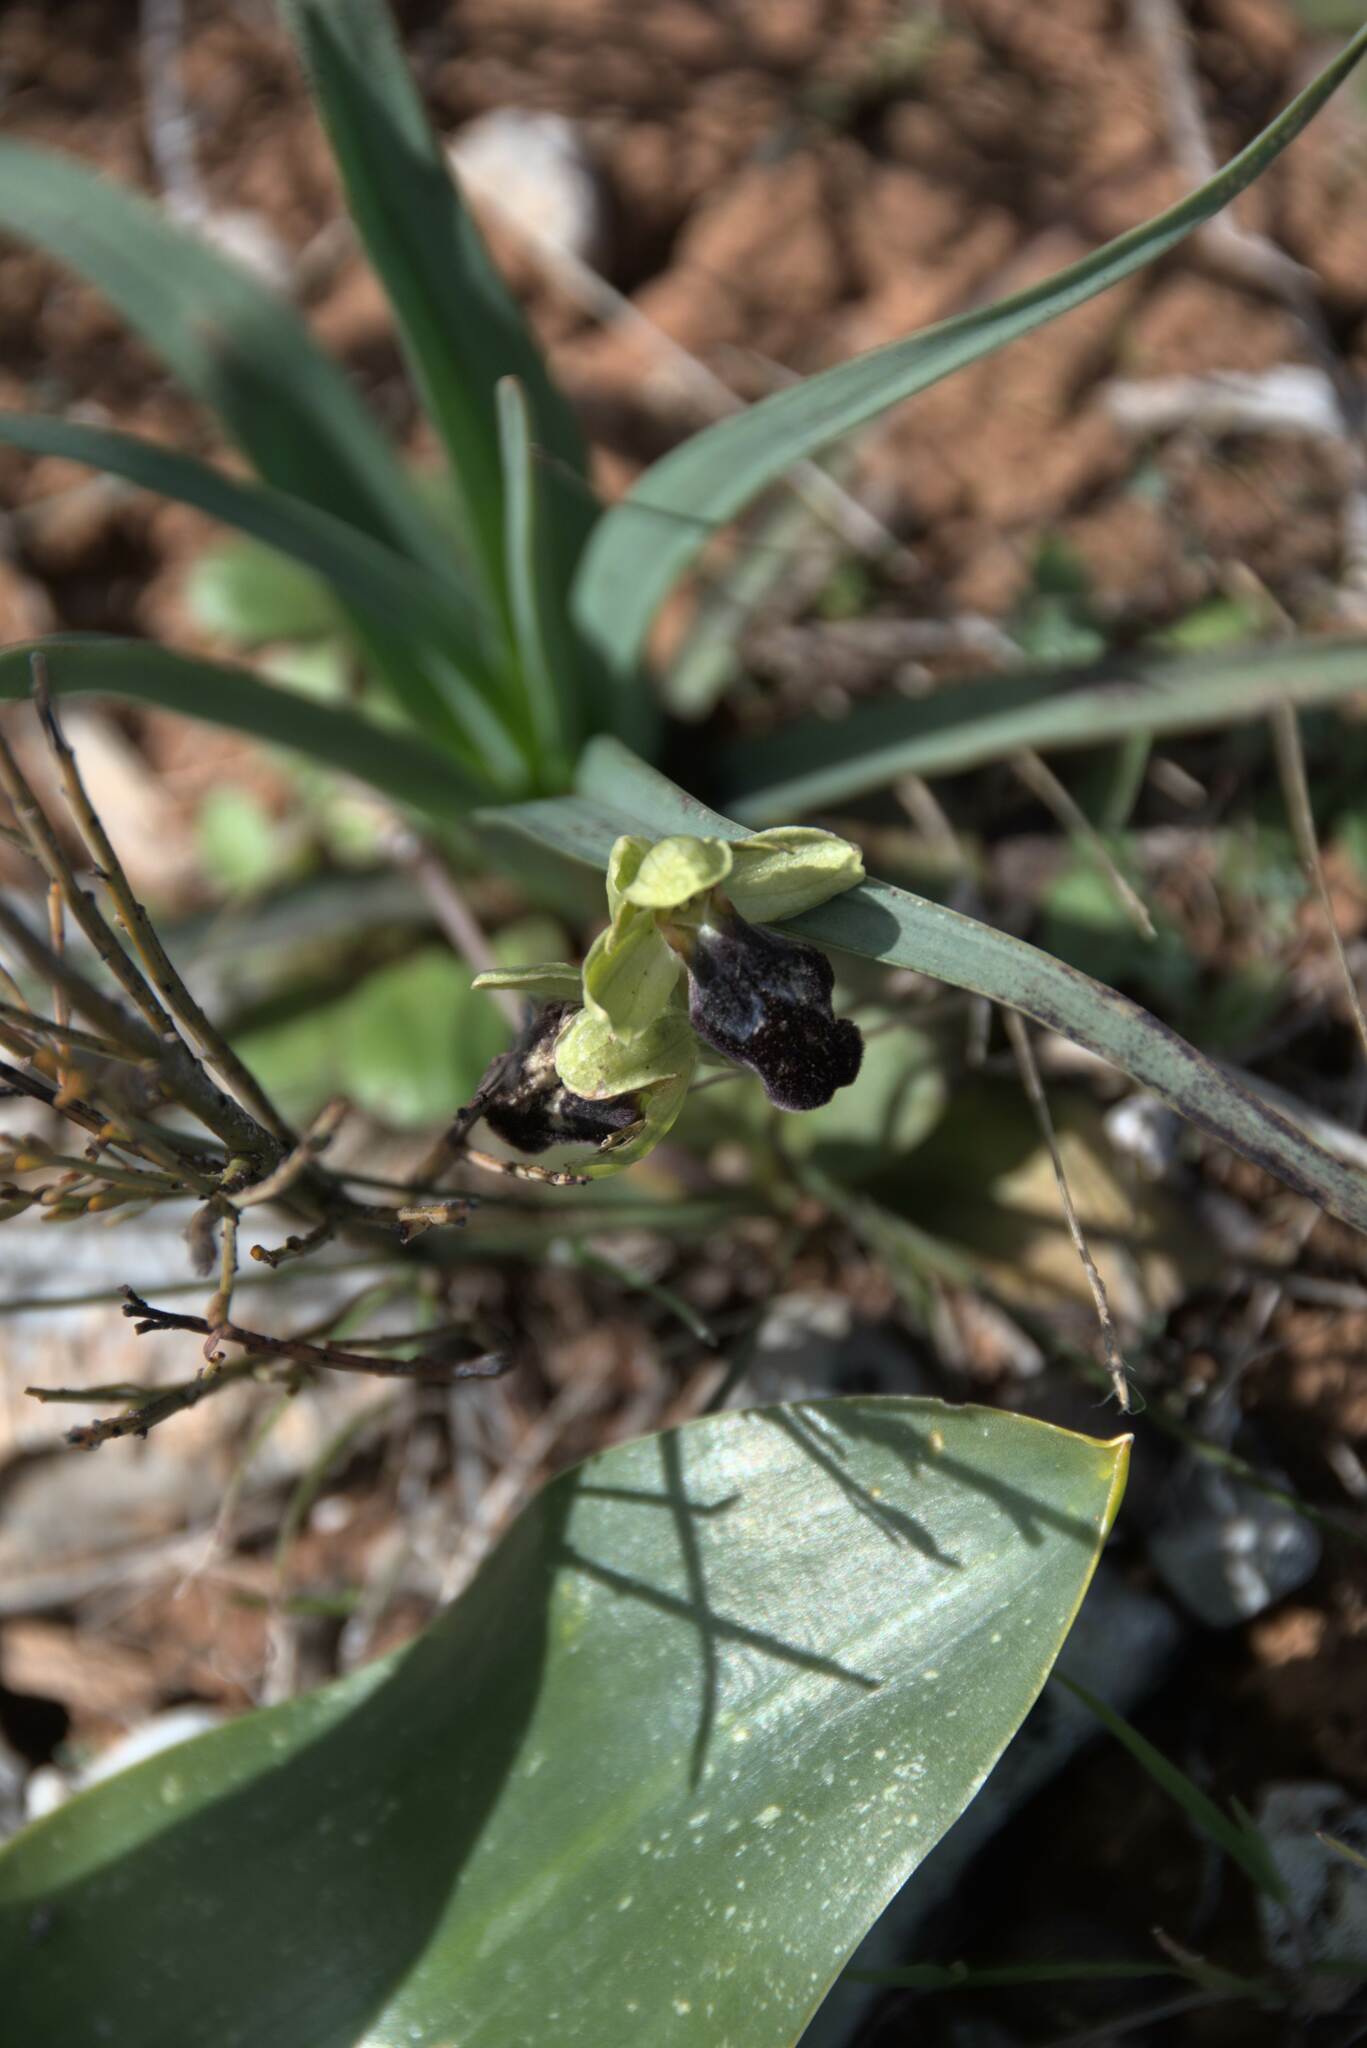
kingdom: Plantae
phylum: Tracheophyta
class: Liliopsida
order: Asparagales
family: Orchidaceae
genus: Ophrys
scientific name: Ophrys fusca
